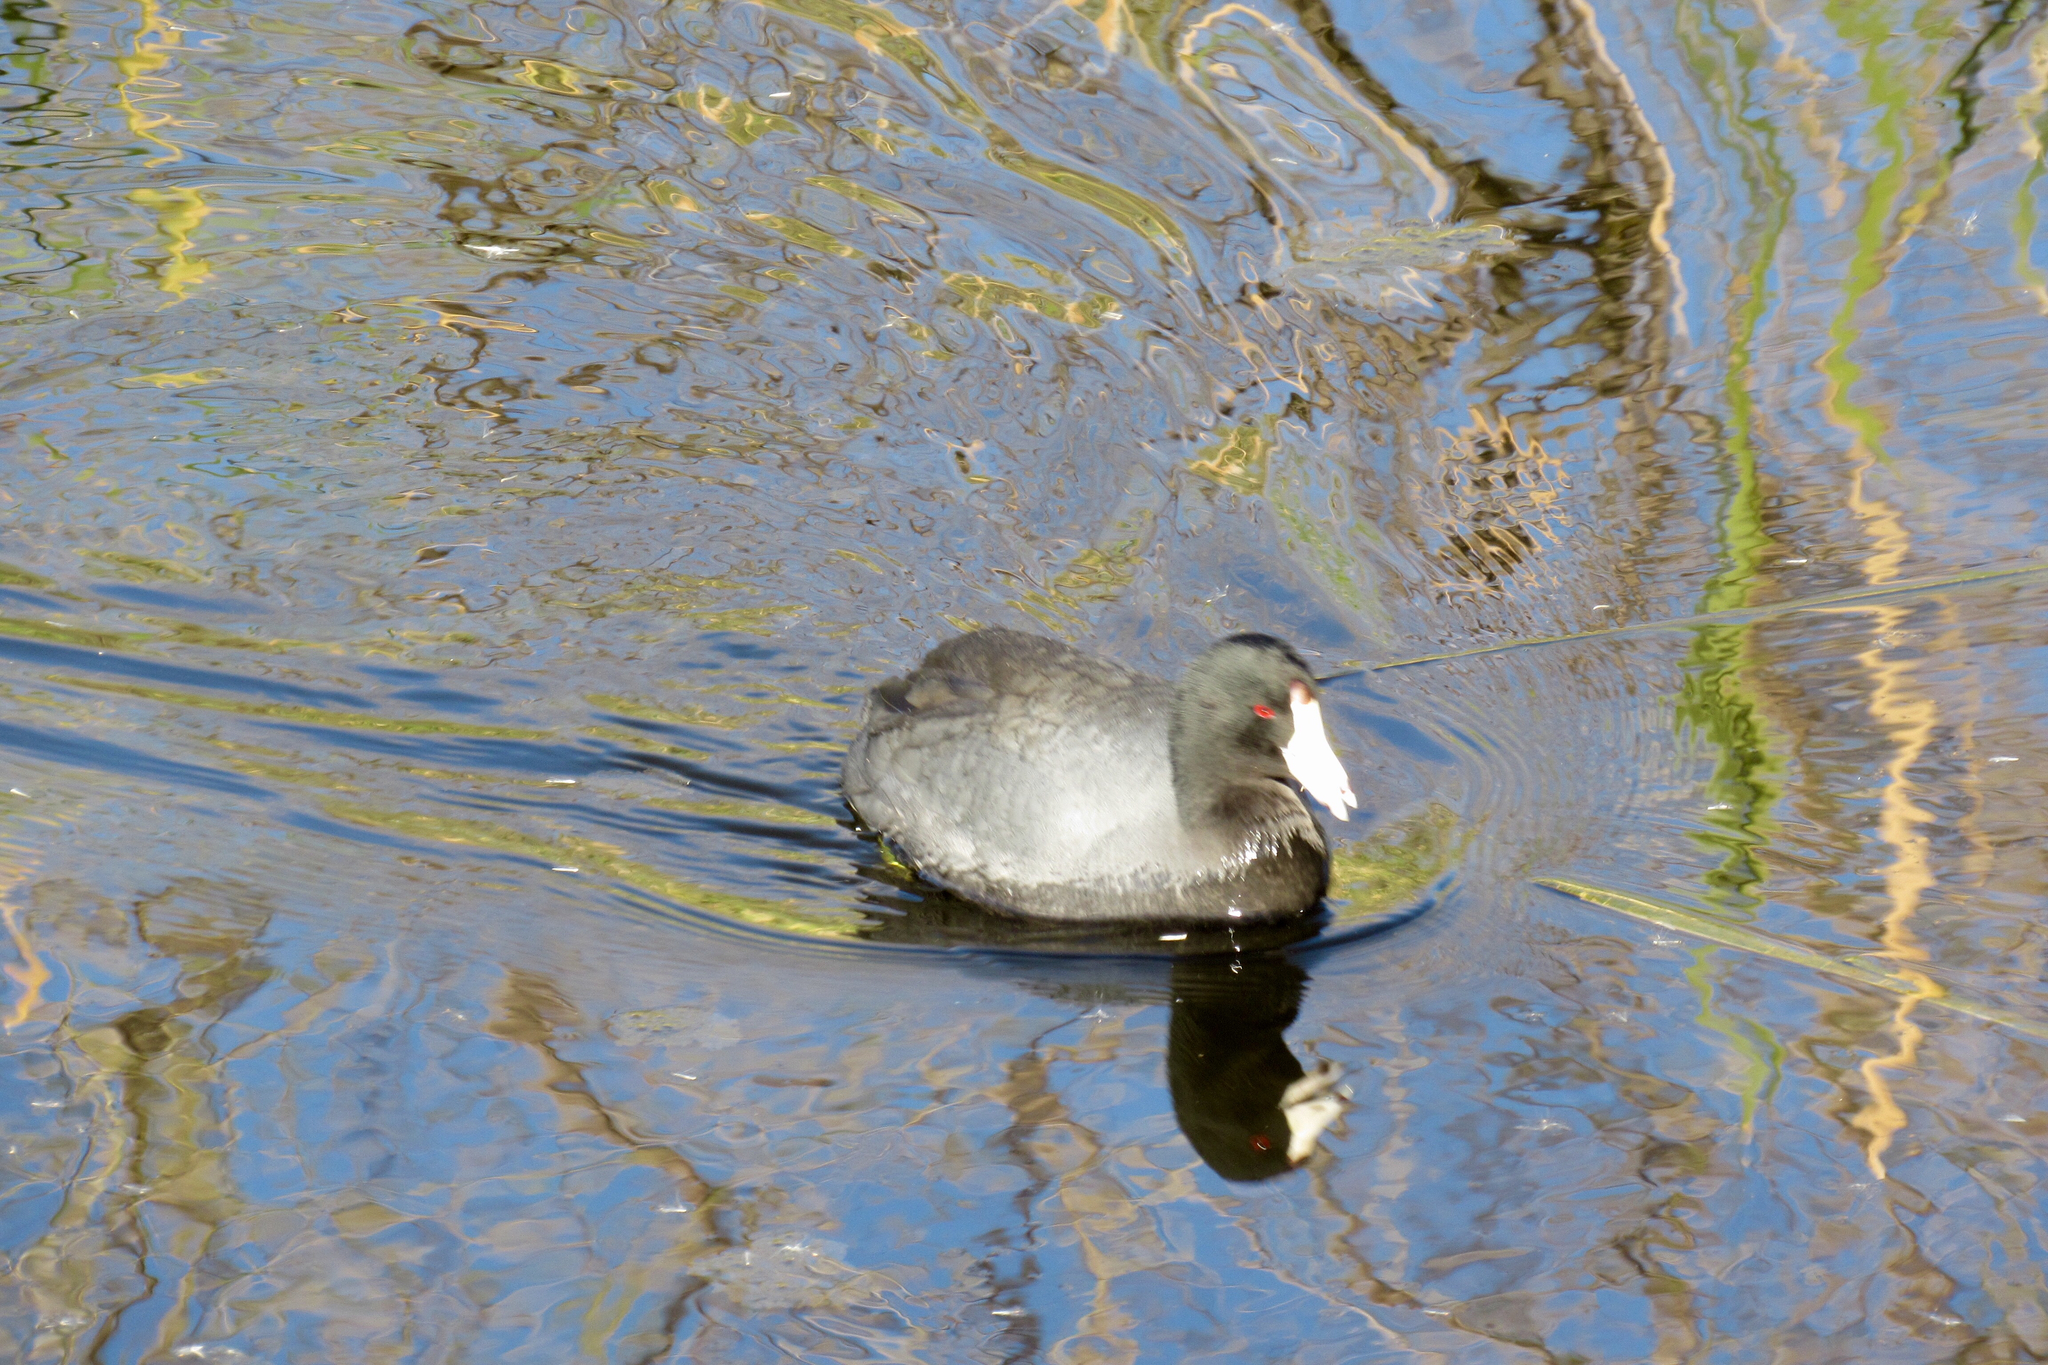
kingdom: Animalia
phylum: Chordata
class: Aves
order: Gruiformes
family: Rallidae
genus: Fulica
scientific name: Fulica americana
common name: American coot
